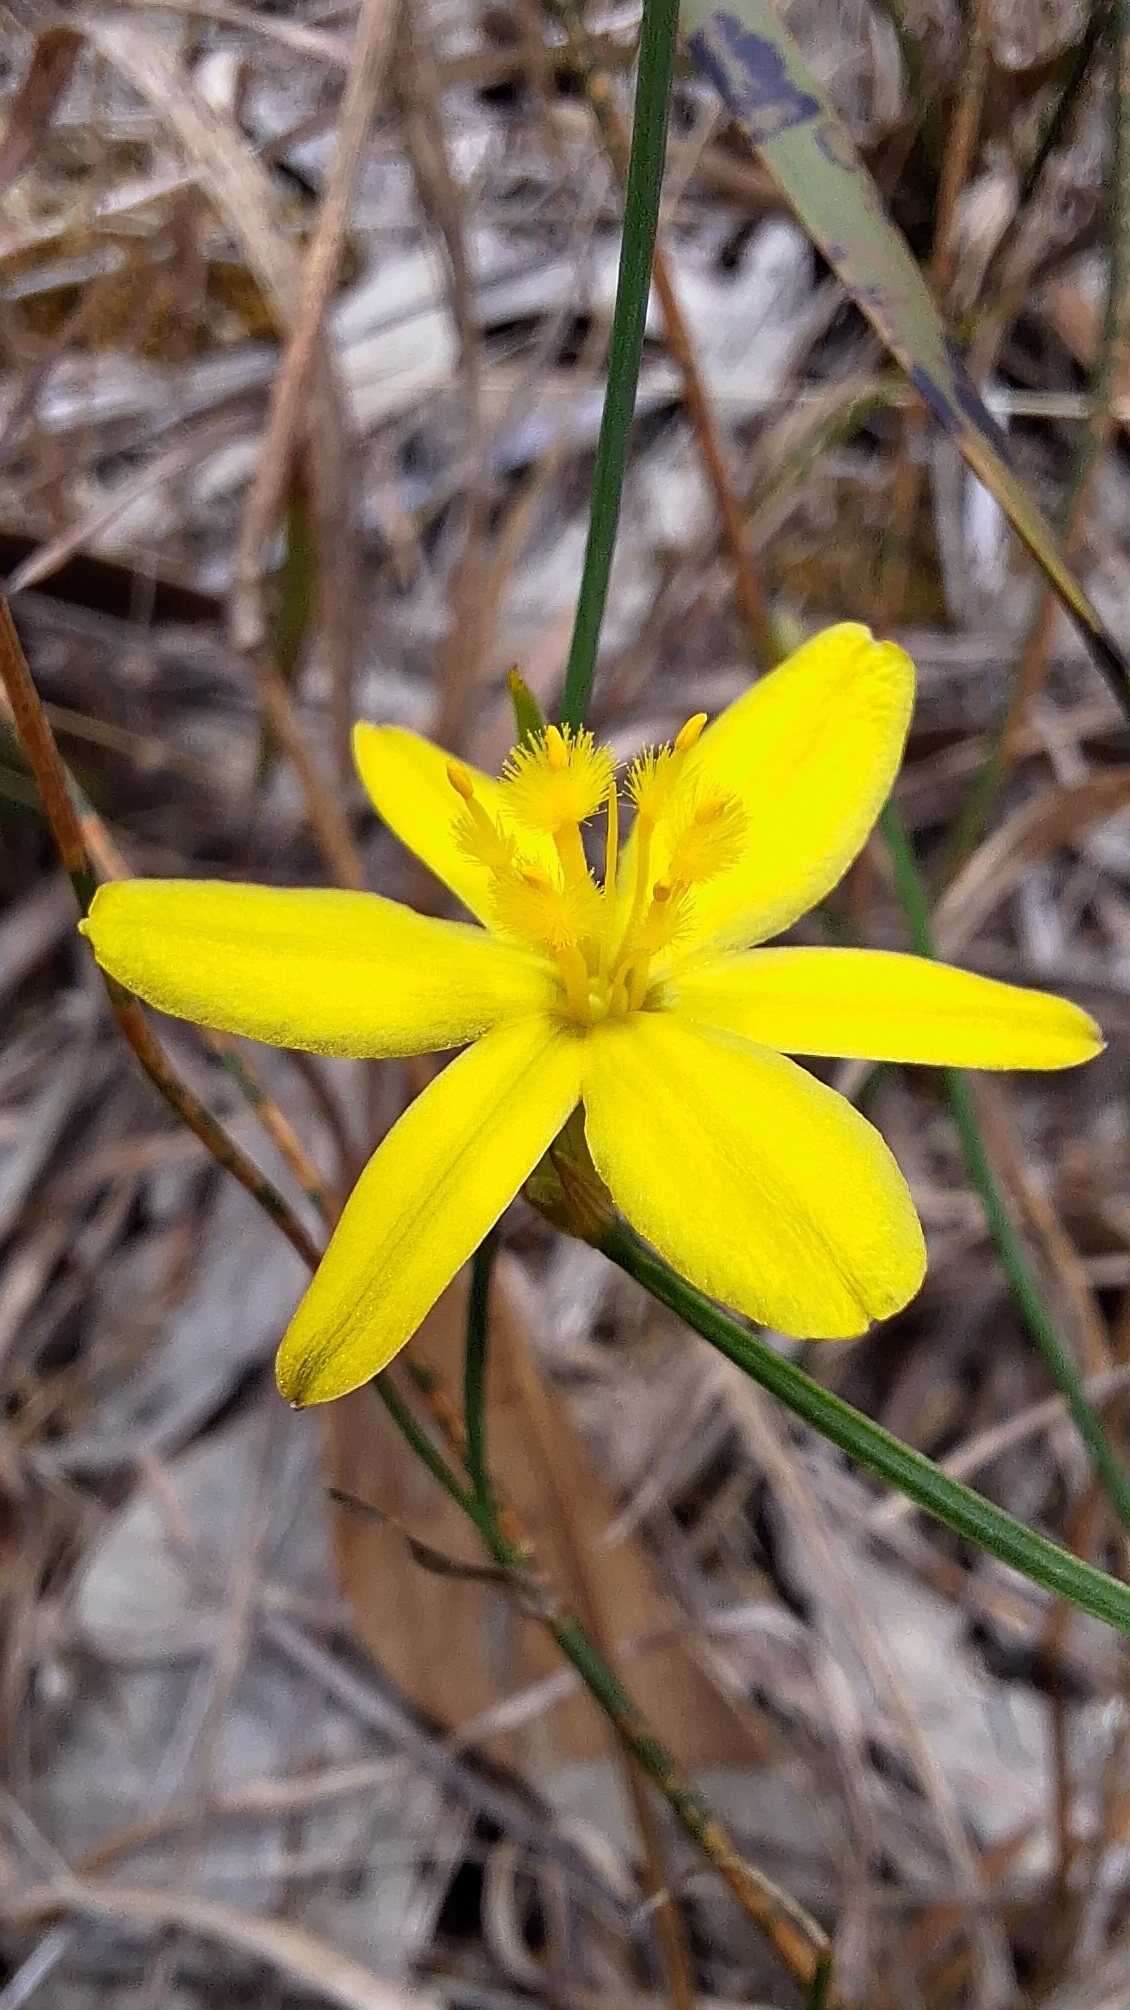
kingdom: Plantae
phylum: Tracheophyta
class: Liliopsida
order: Asparagales
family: Asphodelaceae
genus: Tricoryne
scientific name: Tricoryne elatior
